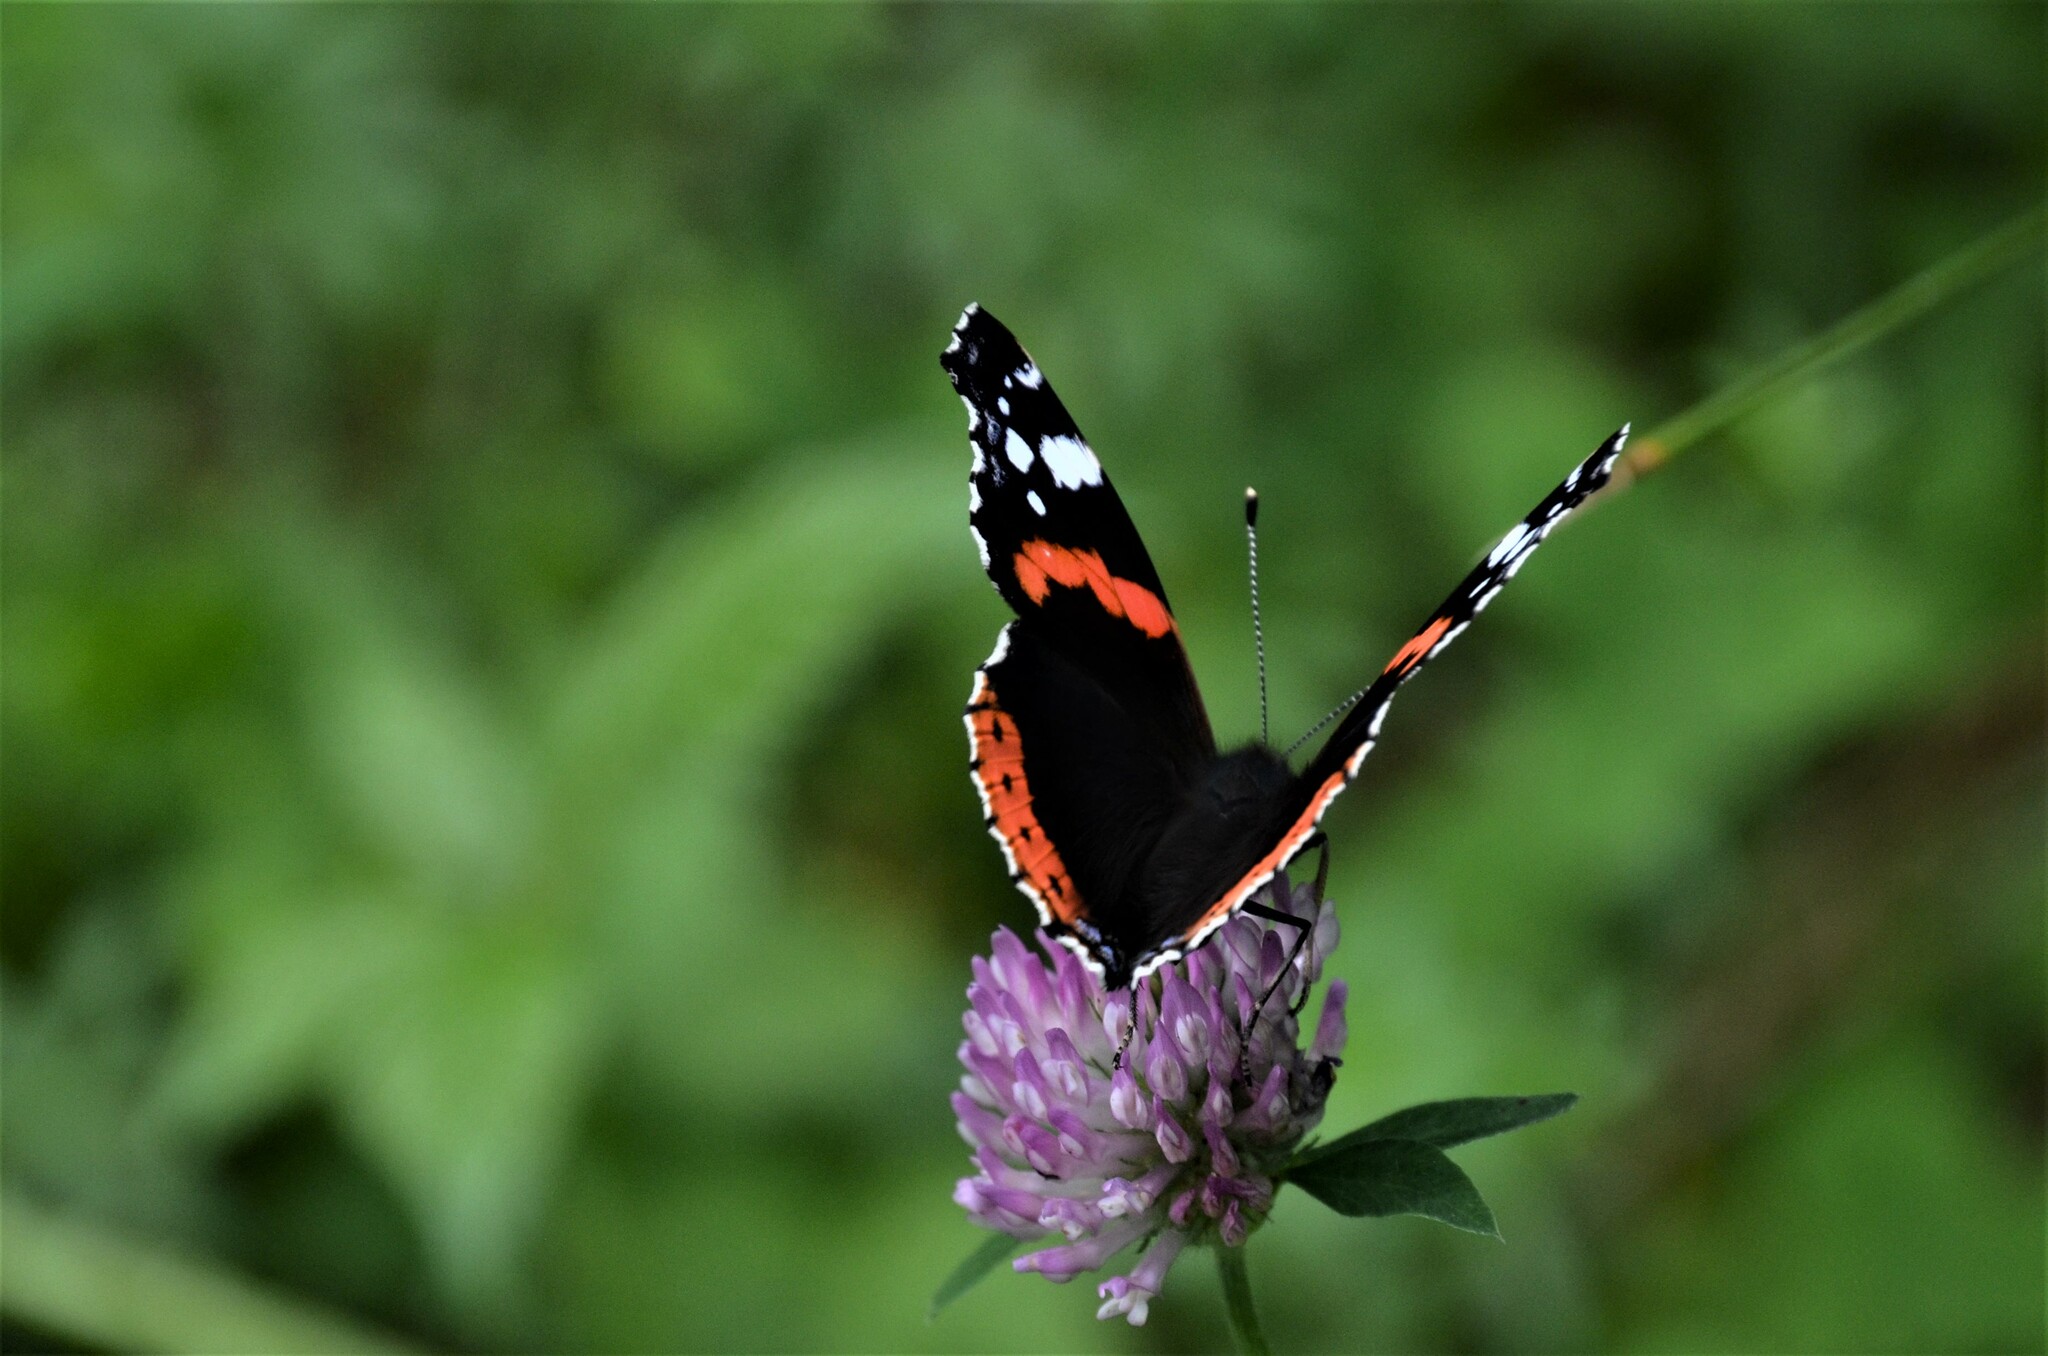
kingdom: Animalia
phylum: Arthropoda
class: Insecta
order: Lepidoptera
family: Nymphalidae
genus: Vanessa
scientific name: Vanessa atalanta
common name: Red admiral
